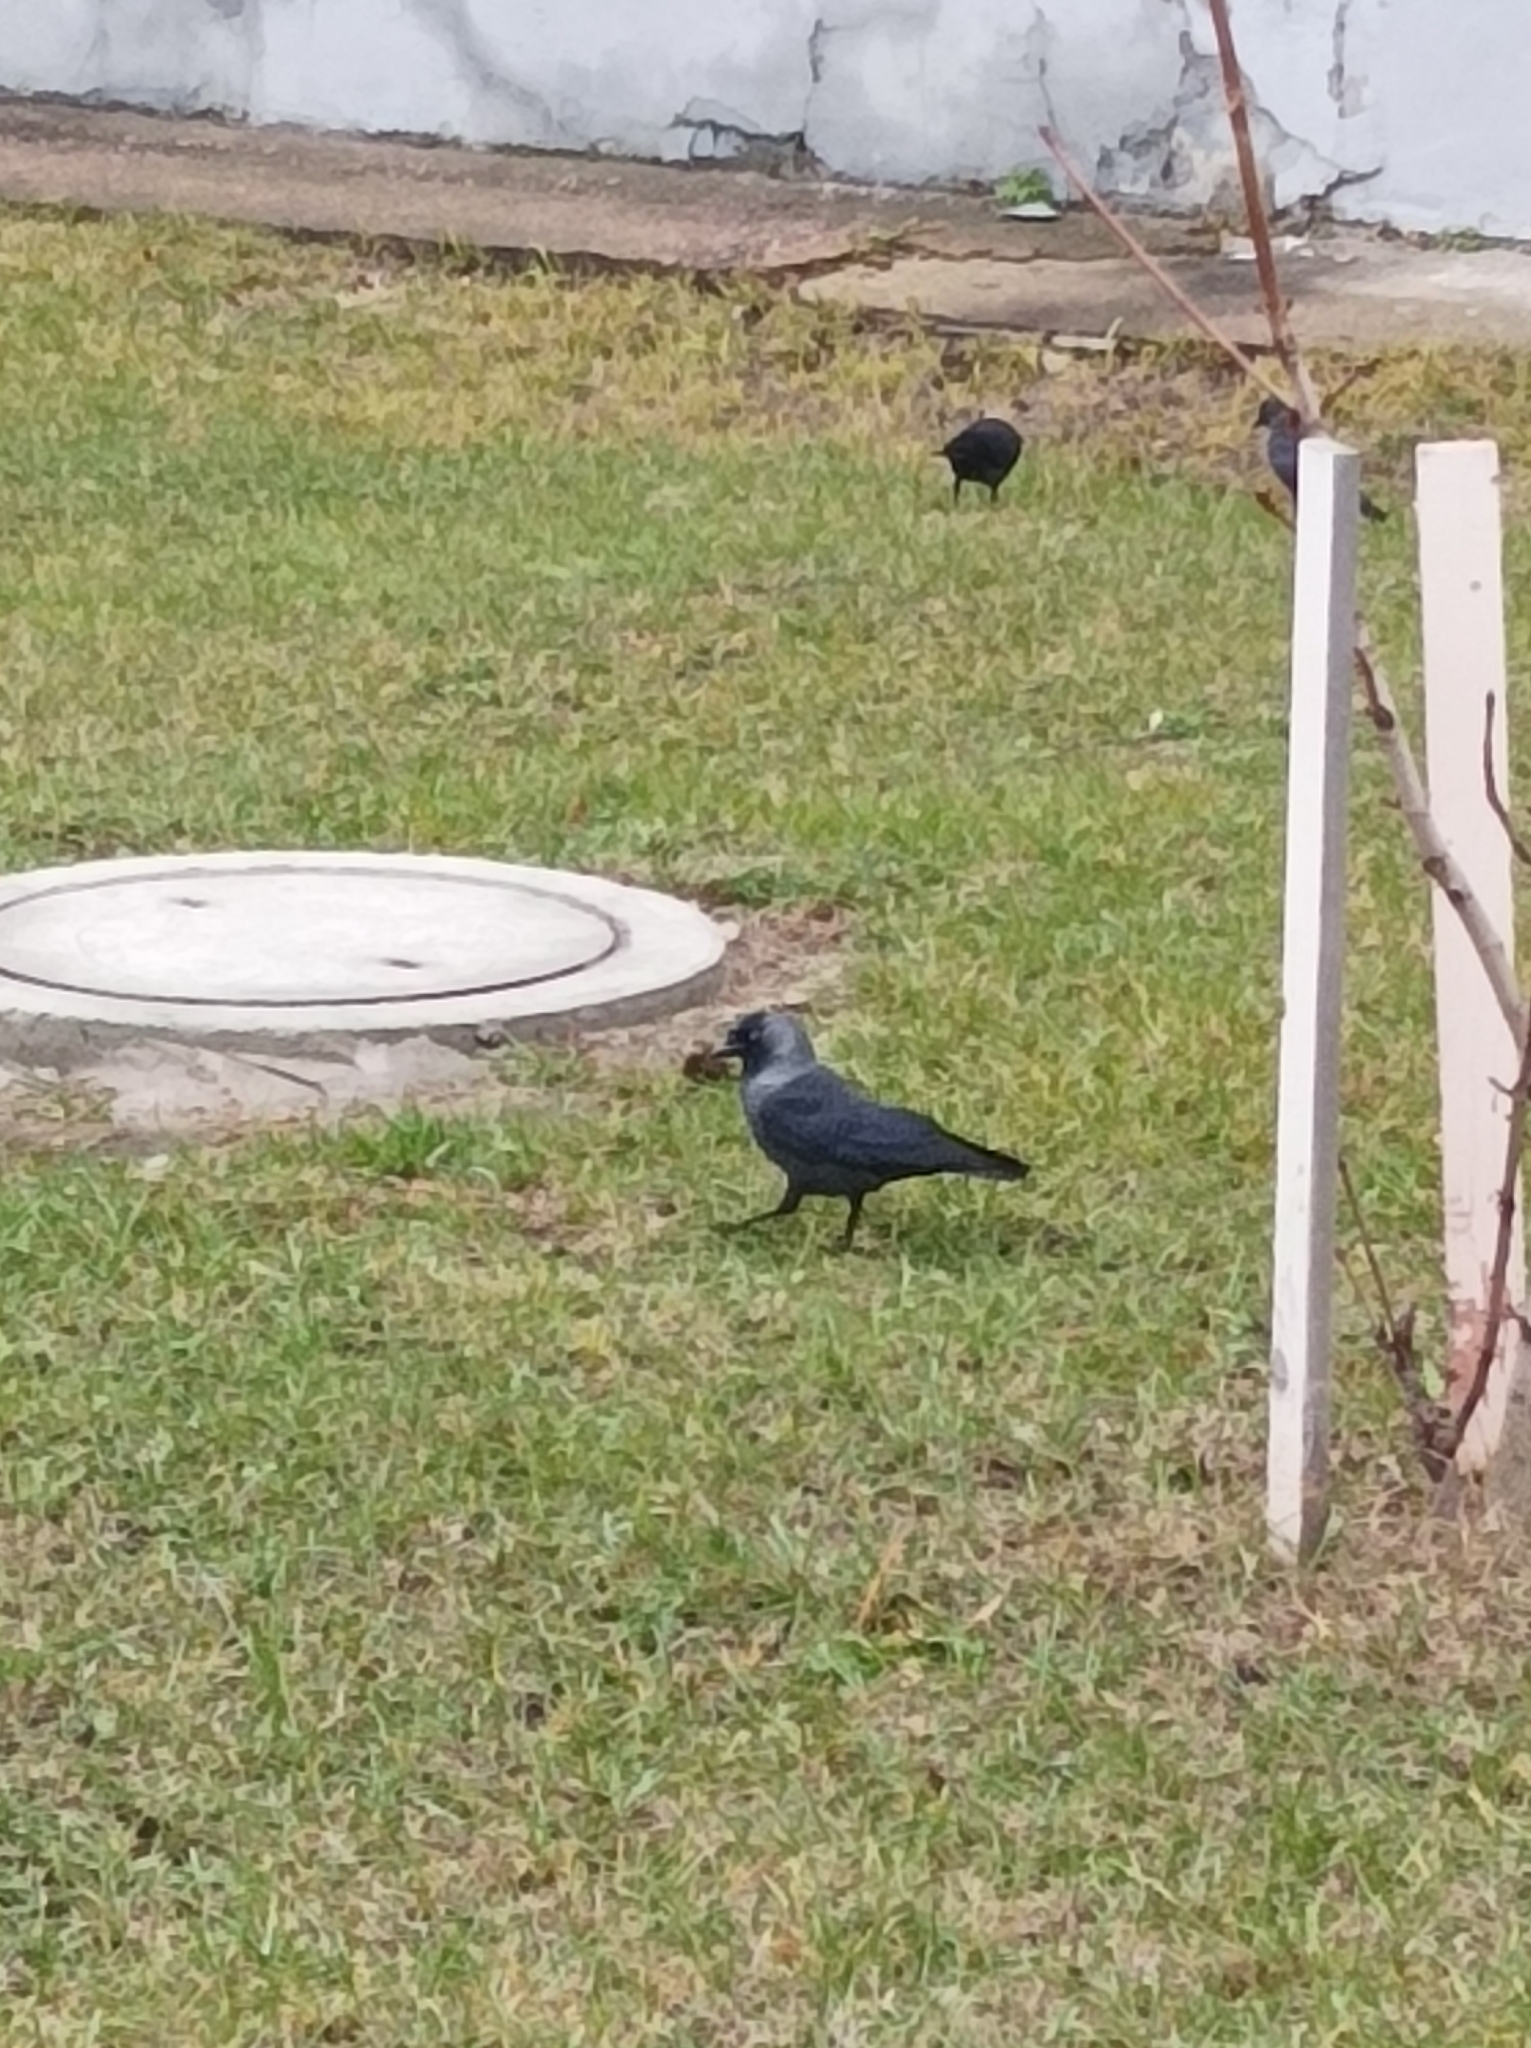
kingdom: Animalia
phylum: Chordata
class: Aves
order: Passeriformes
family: Corvidae
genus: Coloeus
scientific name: Coloeus monedula
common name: Western jackdaw
